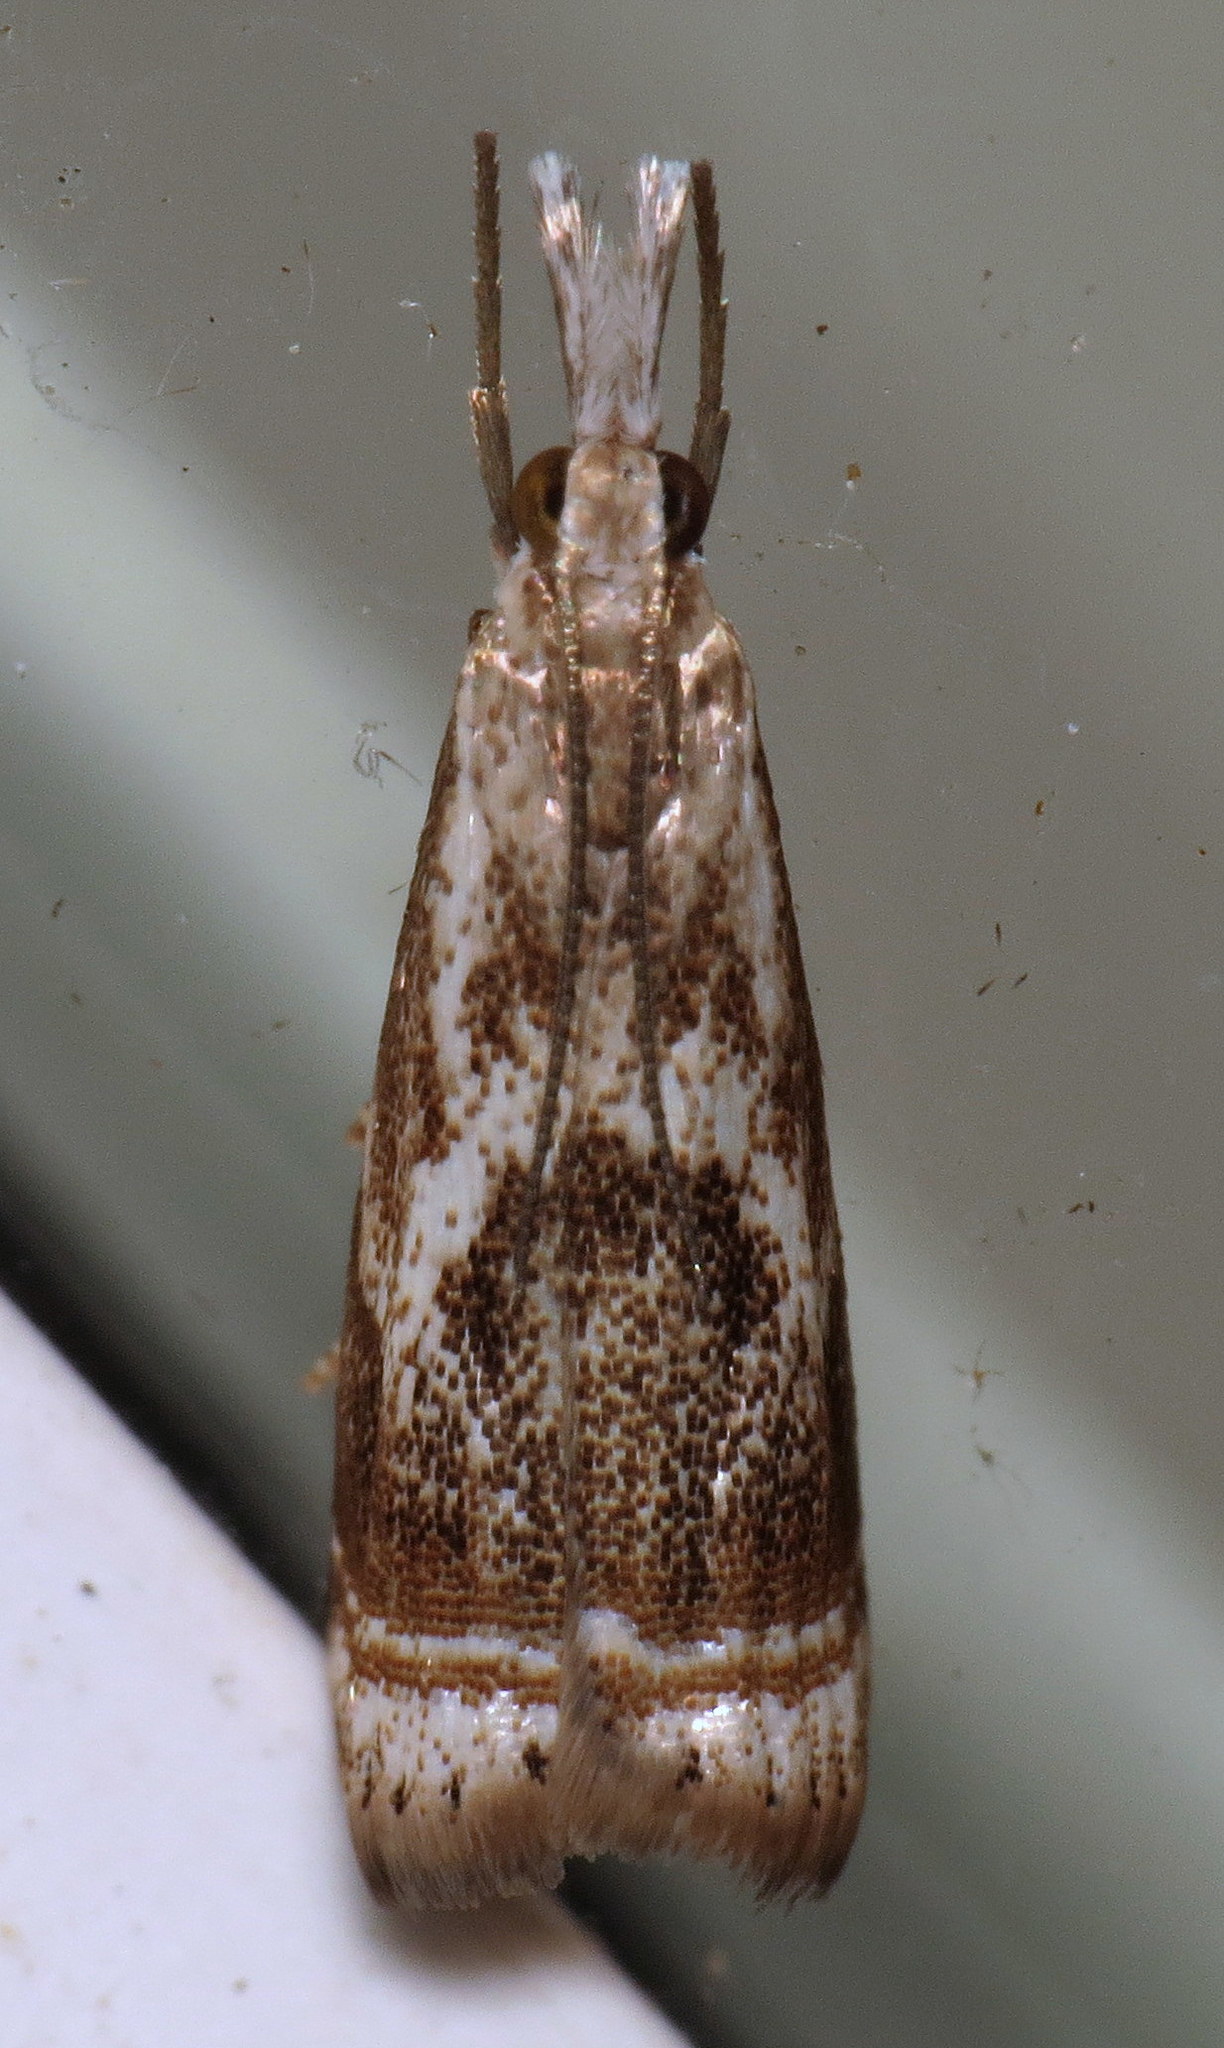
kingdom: Animalia
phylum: Arthropoda
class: Insecta
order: Lepidoptera
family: Crambidae
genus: Microcrambus
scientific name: Microcrambus elegans
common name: Elegant grass-veneer
